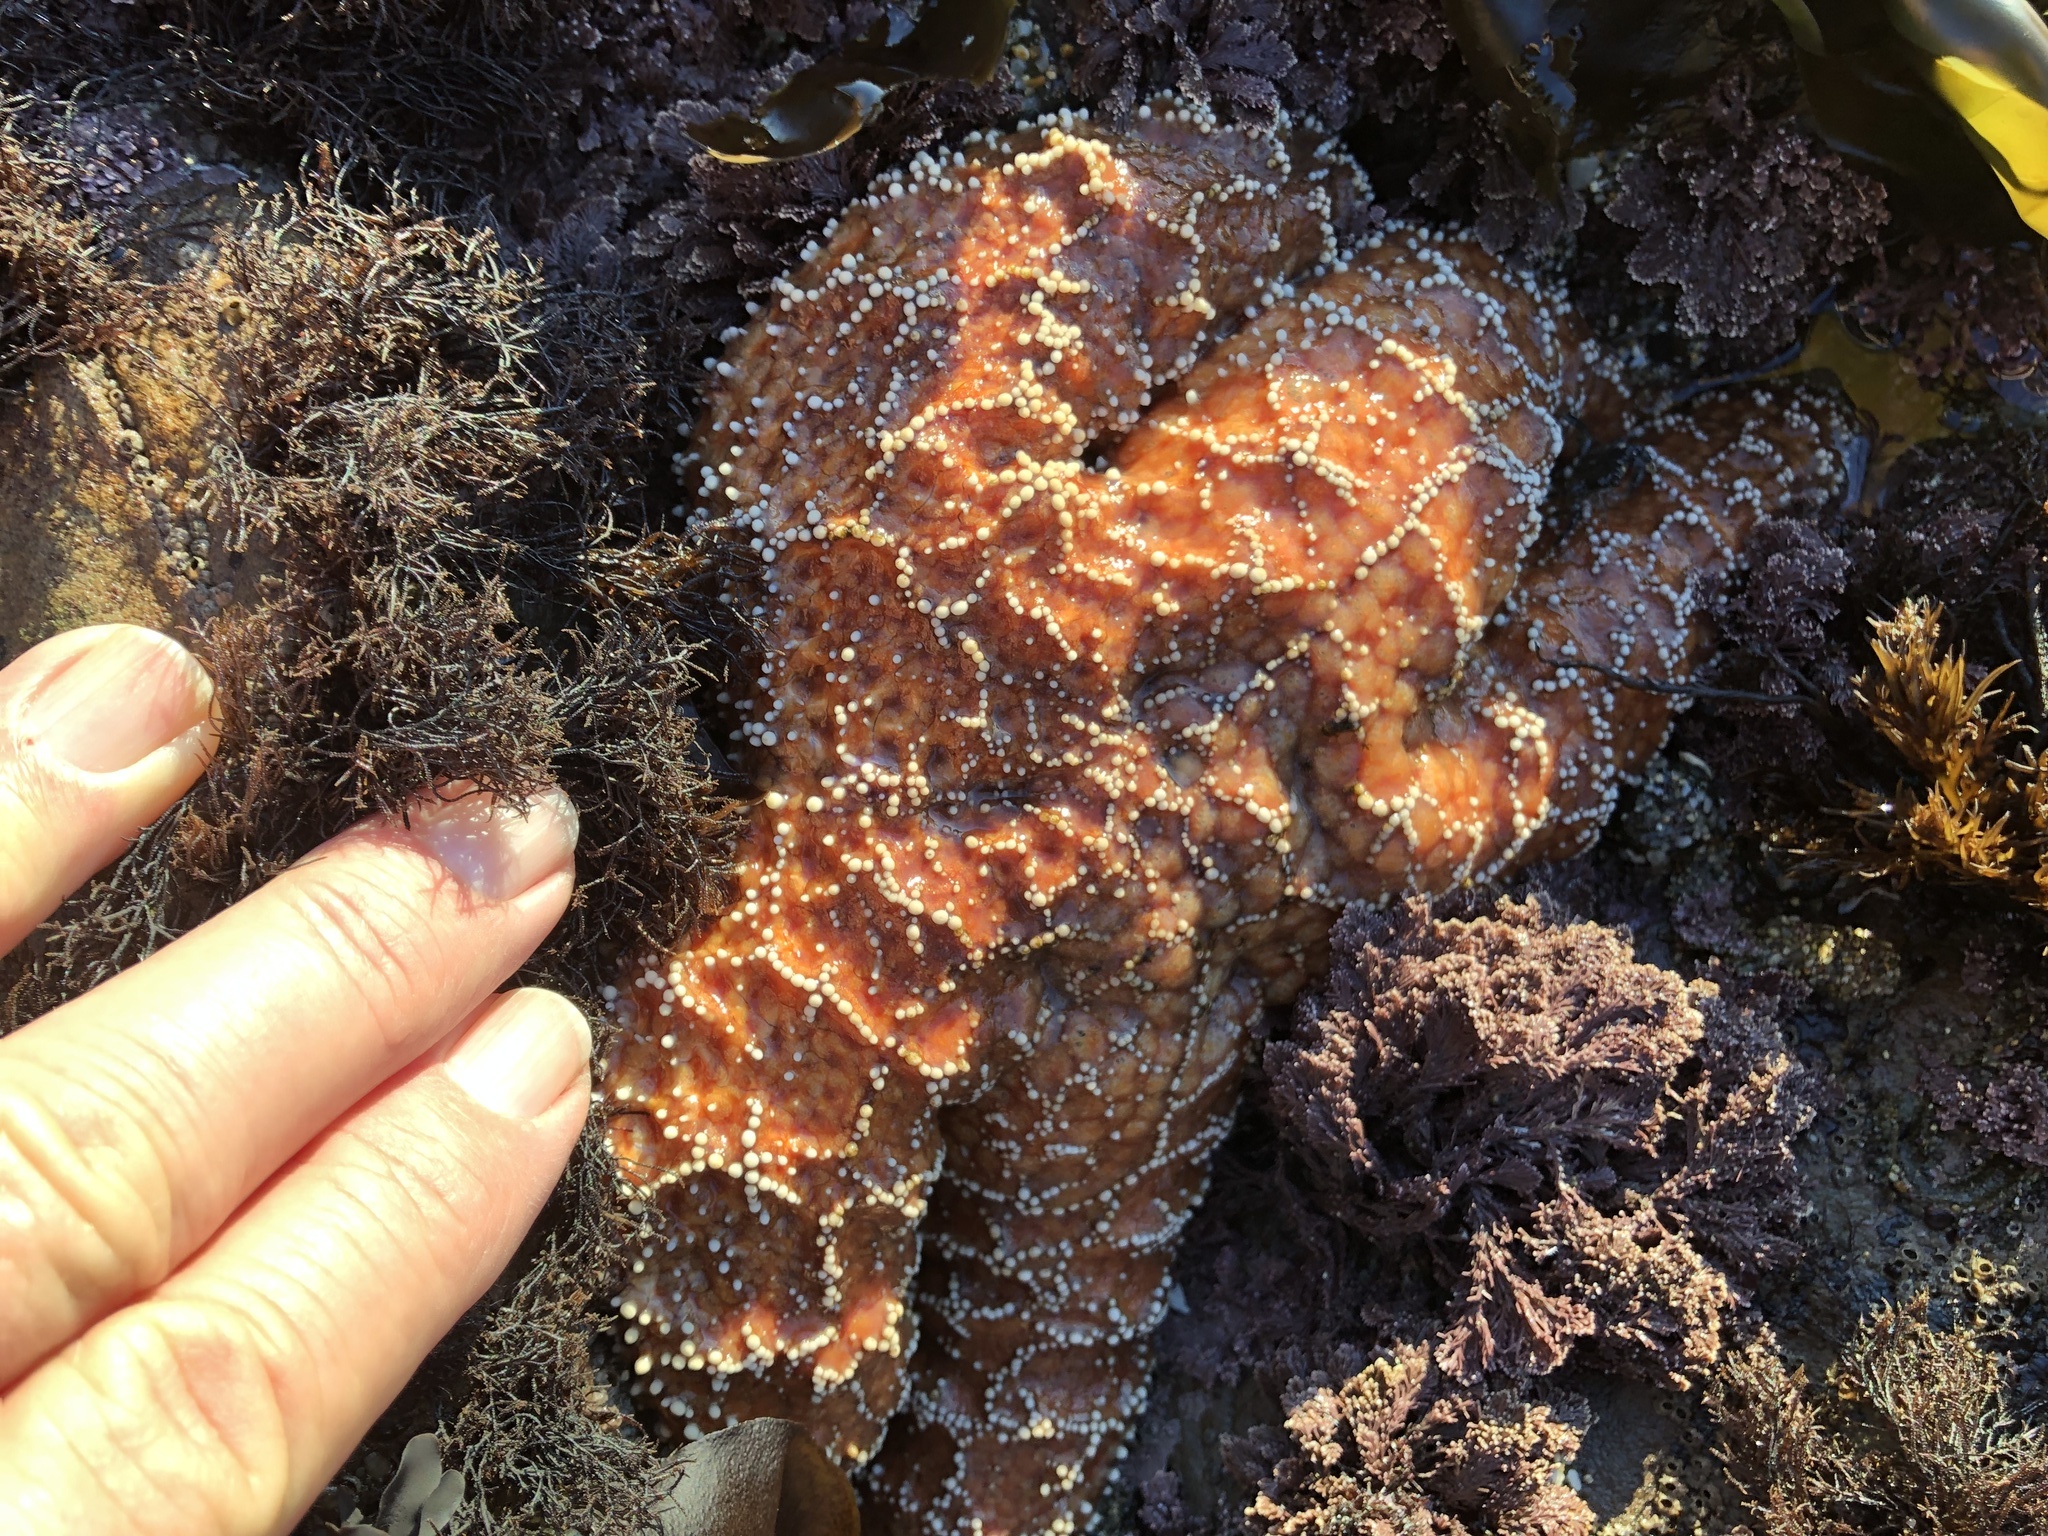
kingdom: Animalia
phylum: Echinodermata
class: Asteroidea
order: Forcipulatida
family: Asteriidae
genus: Pisaster
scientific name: Pisaster ochraceus
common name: Ochre stars
